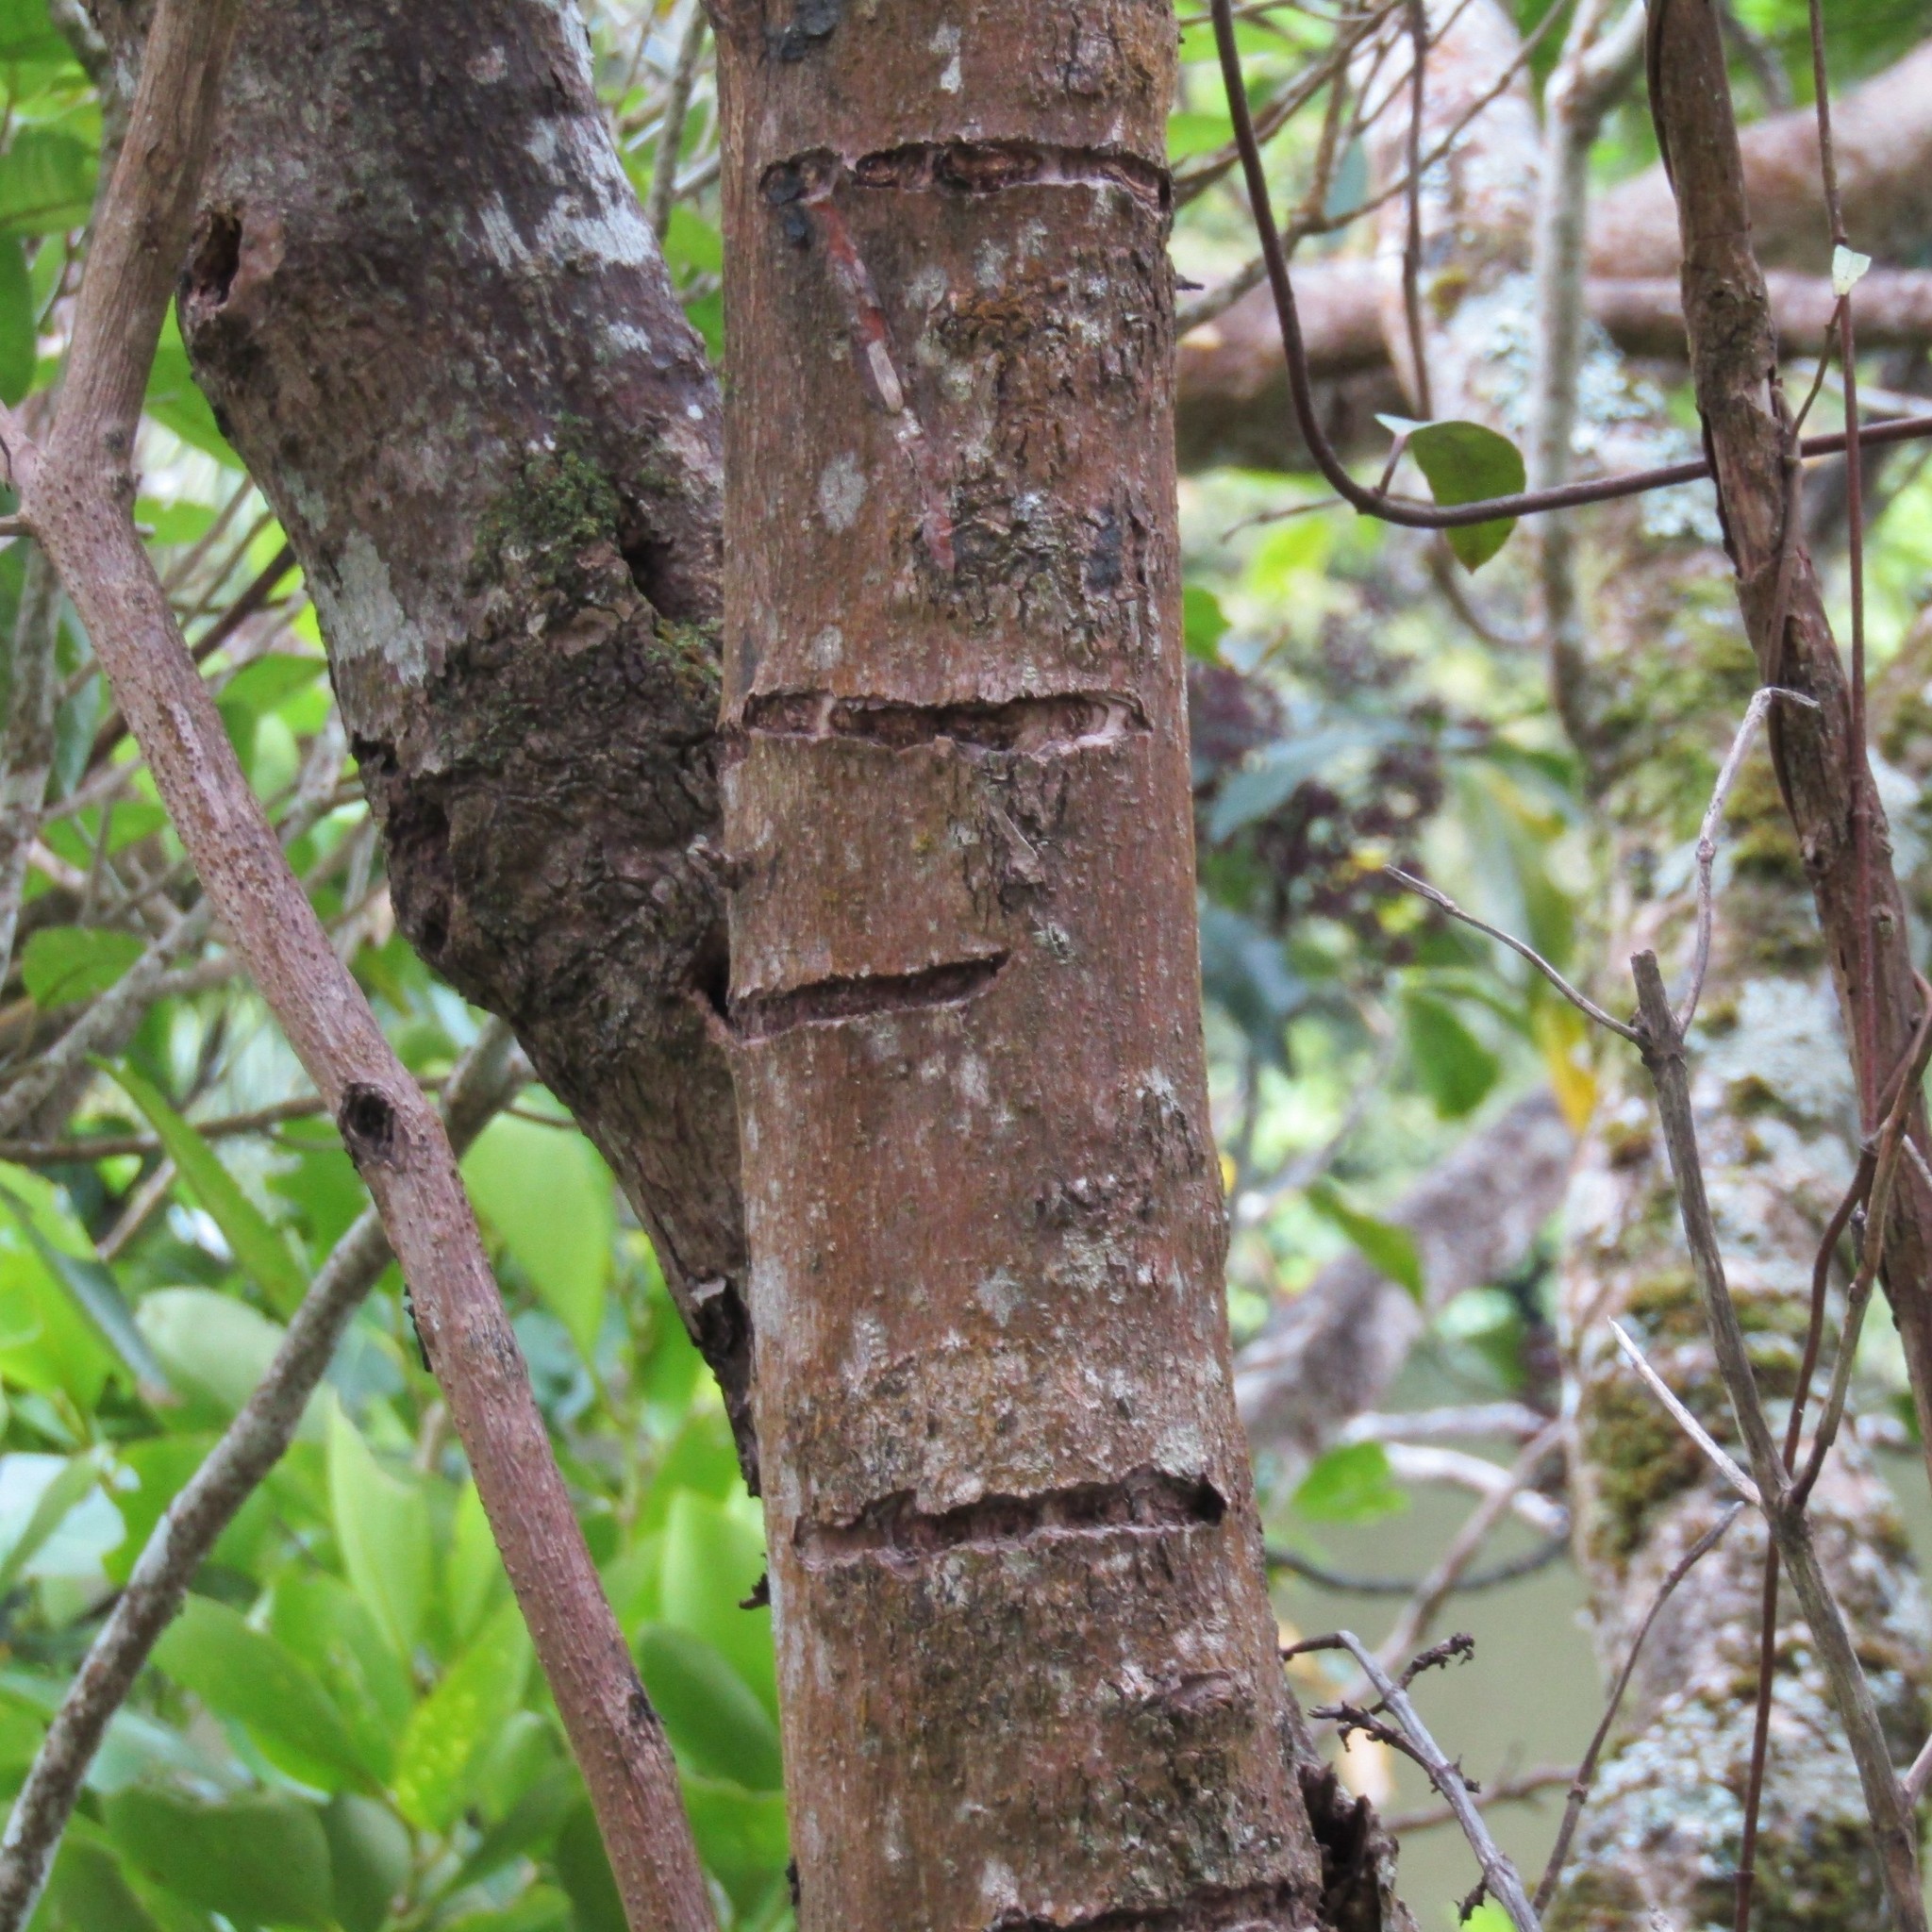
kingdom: Animalia
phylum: Chordata
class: Aves
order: Psittaciformes
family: Psittacidae
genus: Nestor
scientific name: Nestor meridionalis
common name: New zealand kaka
